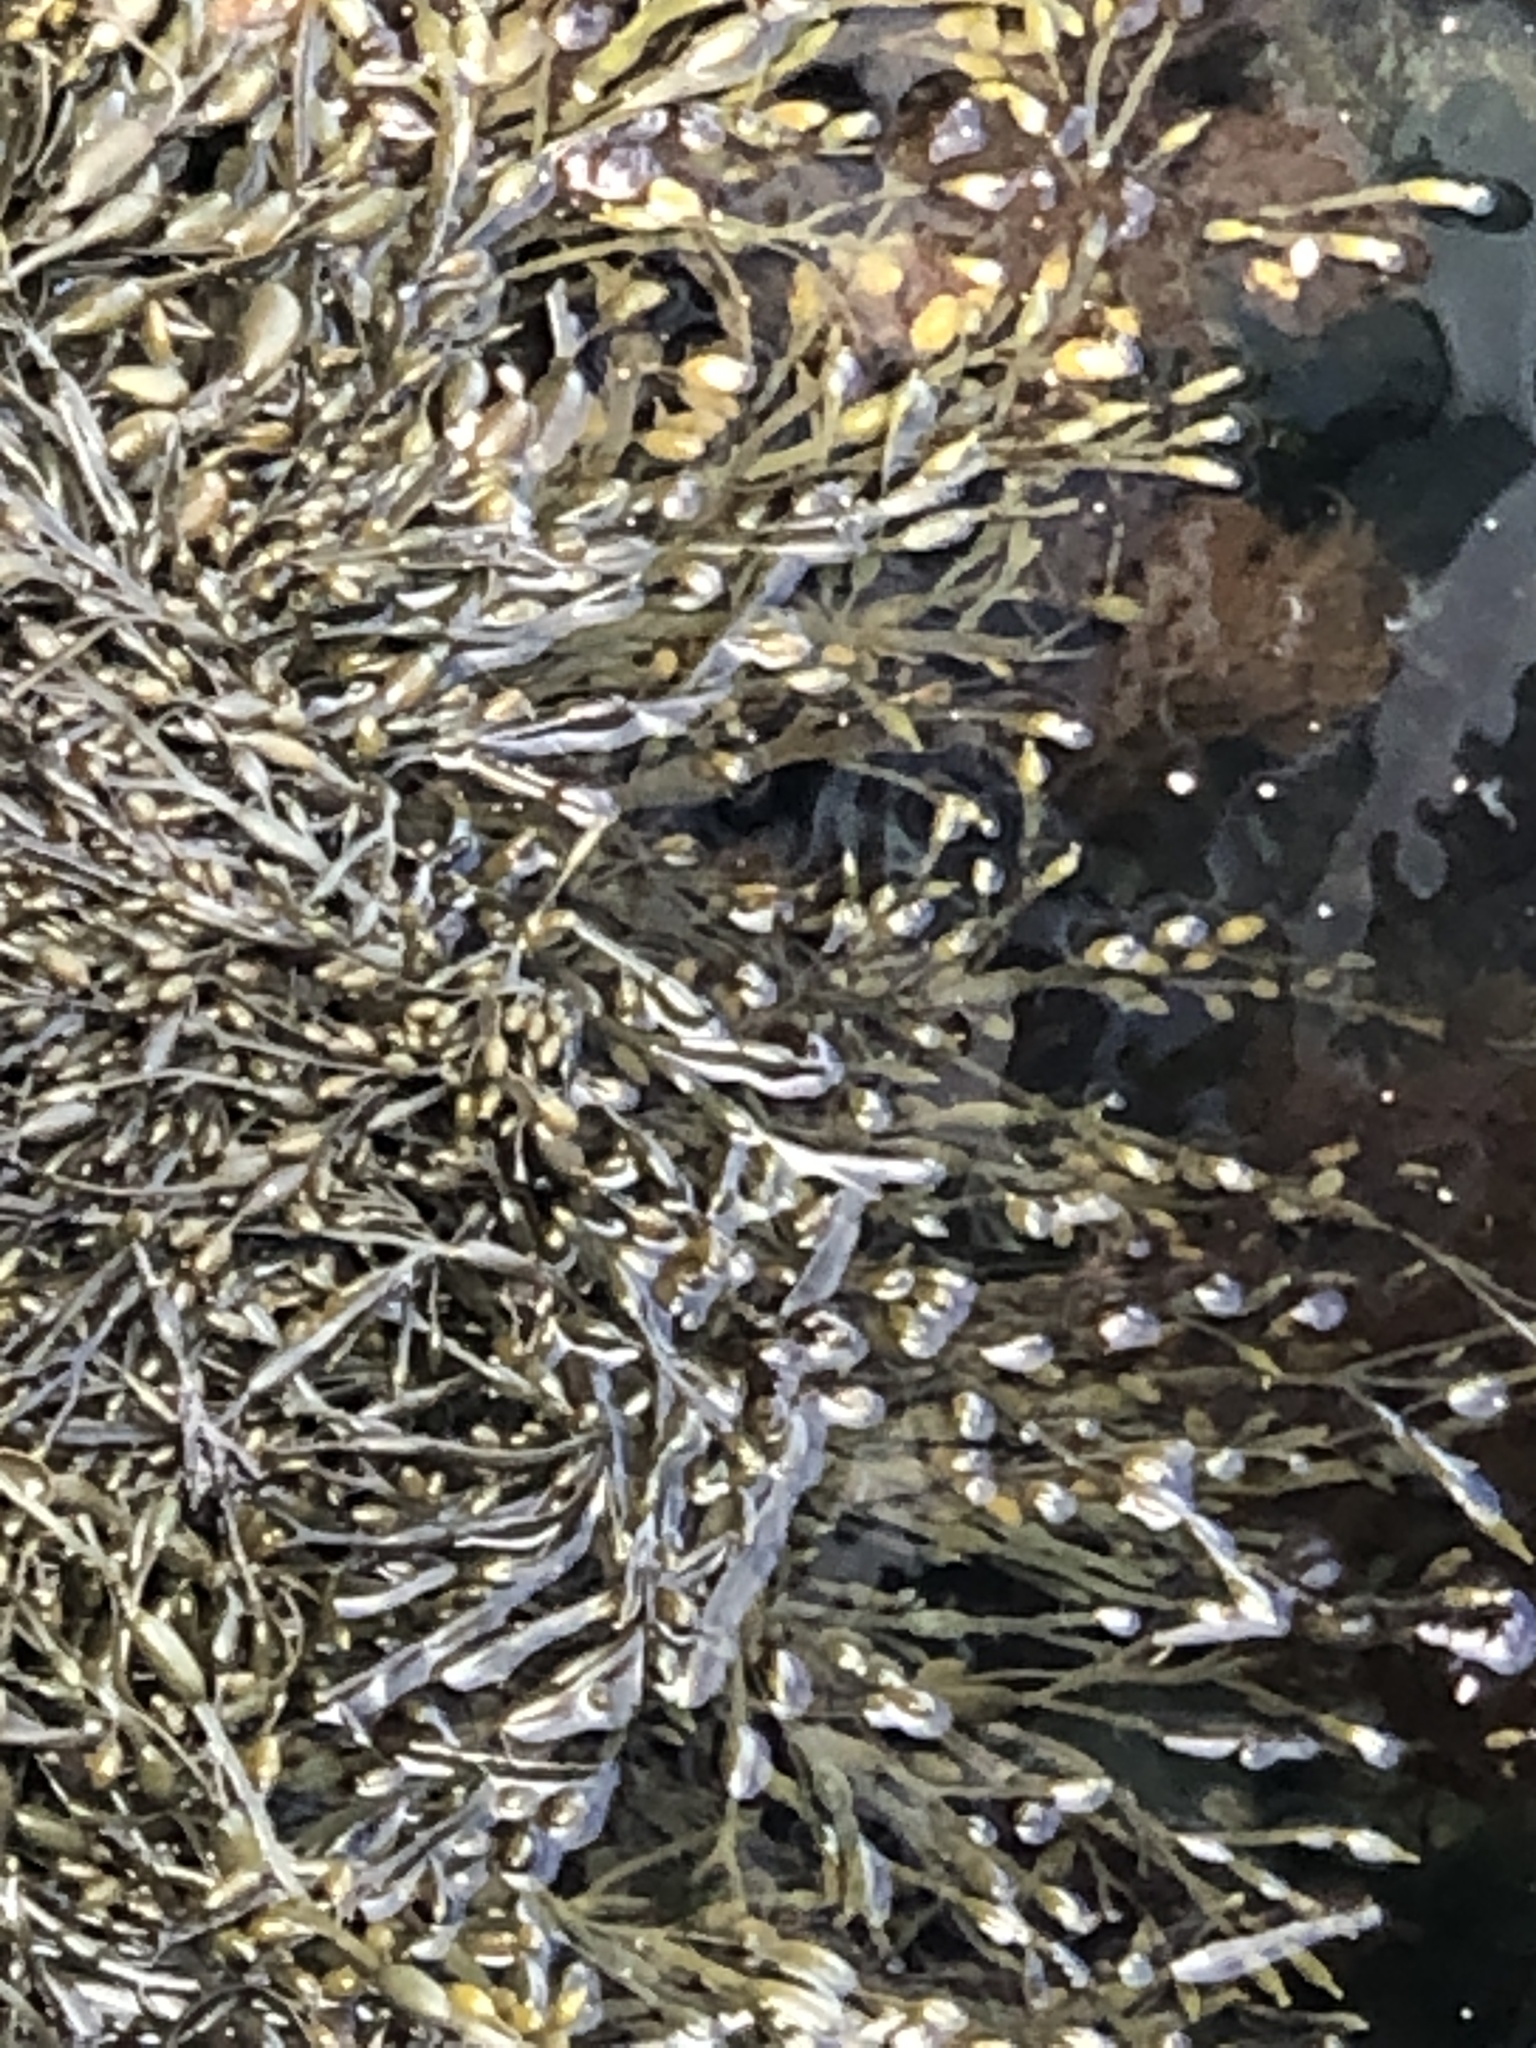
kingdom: Chromista
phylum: Ochrophyta
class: Phaeophyceae
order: Fucales
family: Fucaceae
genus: Ascophyllum
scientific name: Ascophyllum nodosum
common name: Knotted wrack
